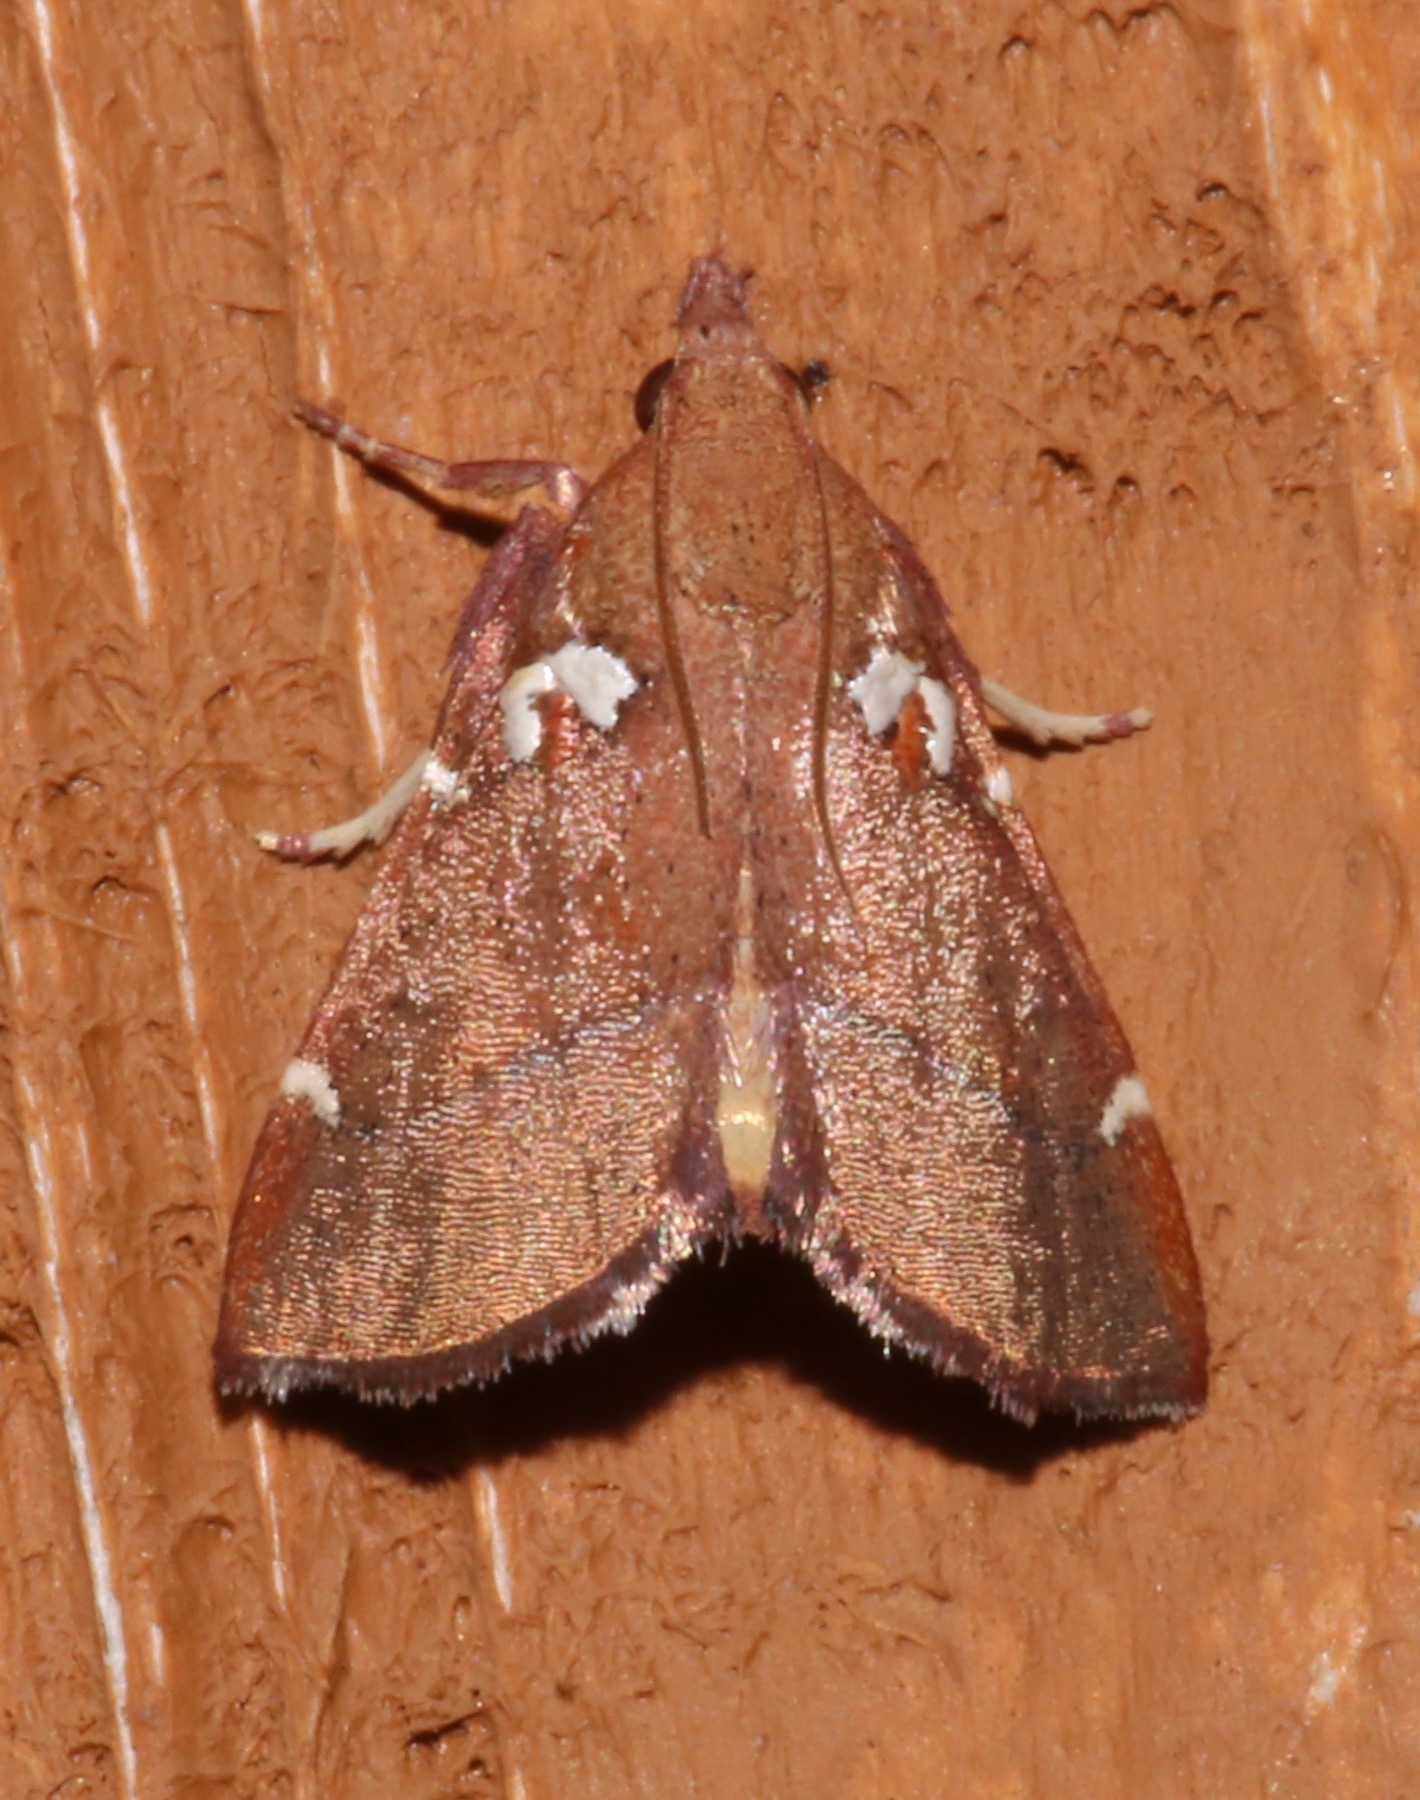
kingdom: Animalia
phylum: Arthropoda
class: Insecta
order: Lepidoptera
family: Pyralidae
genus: Lepidomys
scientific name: Lepidomys irrenosa
